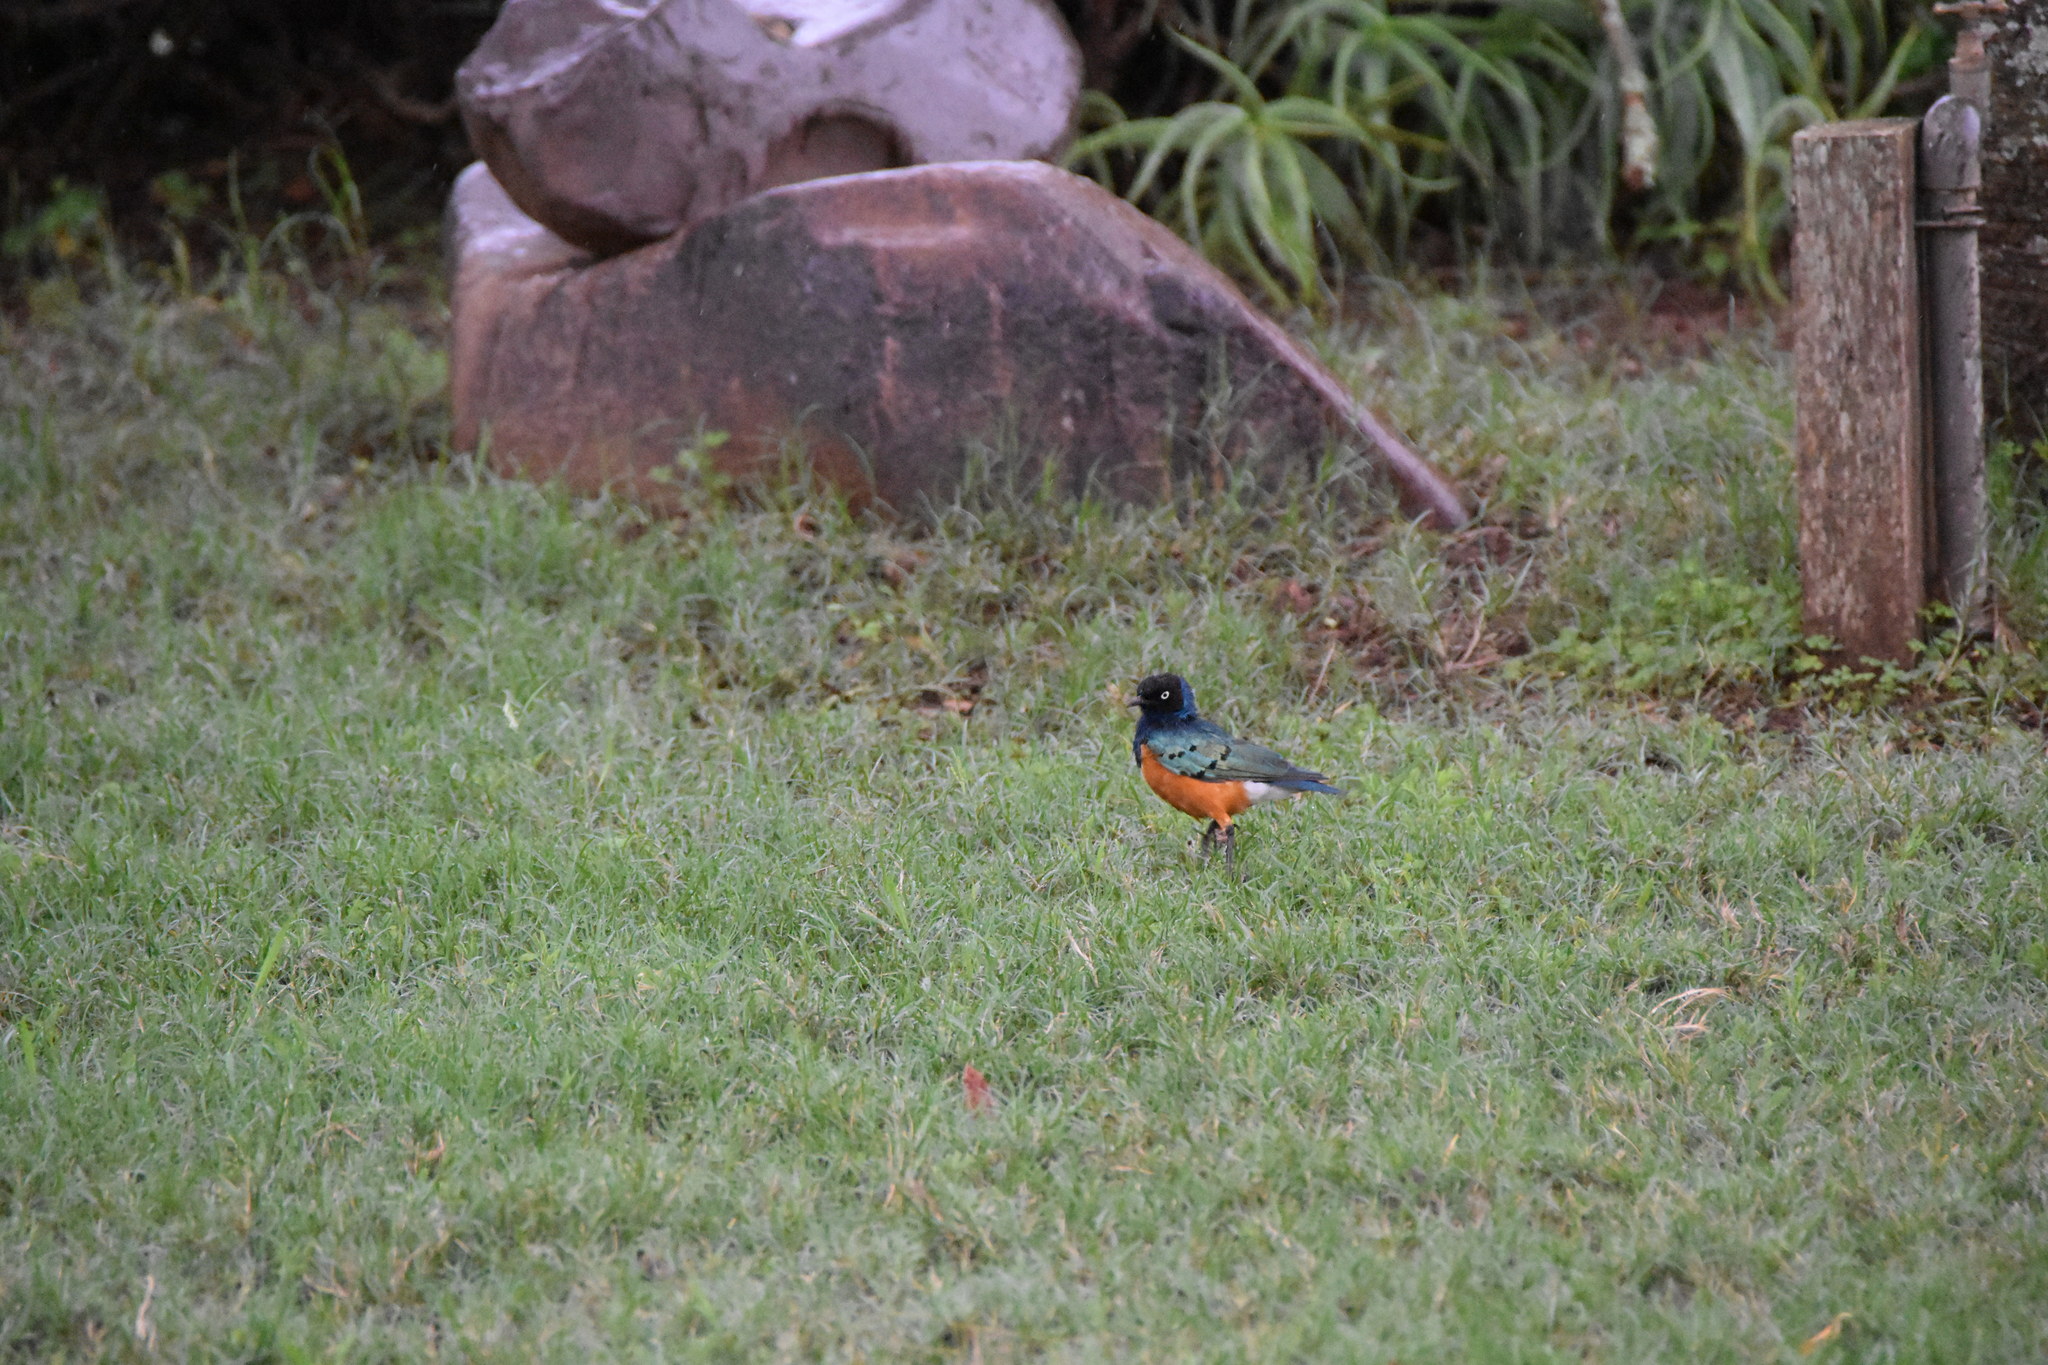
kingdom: Animalia
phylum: Chordata
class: Aves
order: Passeriformes
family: Sturnidae
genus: Lamprotornis
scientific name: Lamprotornis superbus
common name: Superb starling
